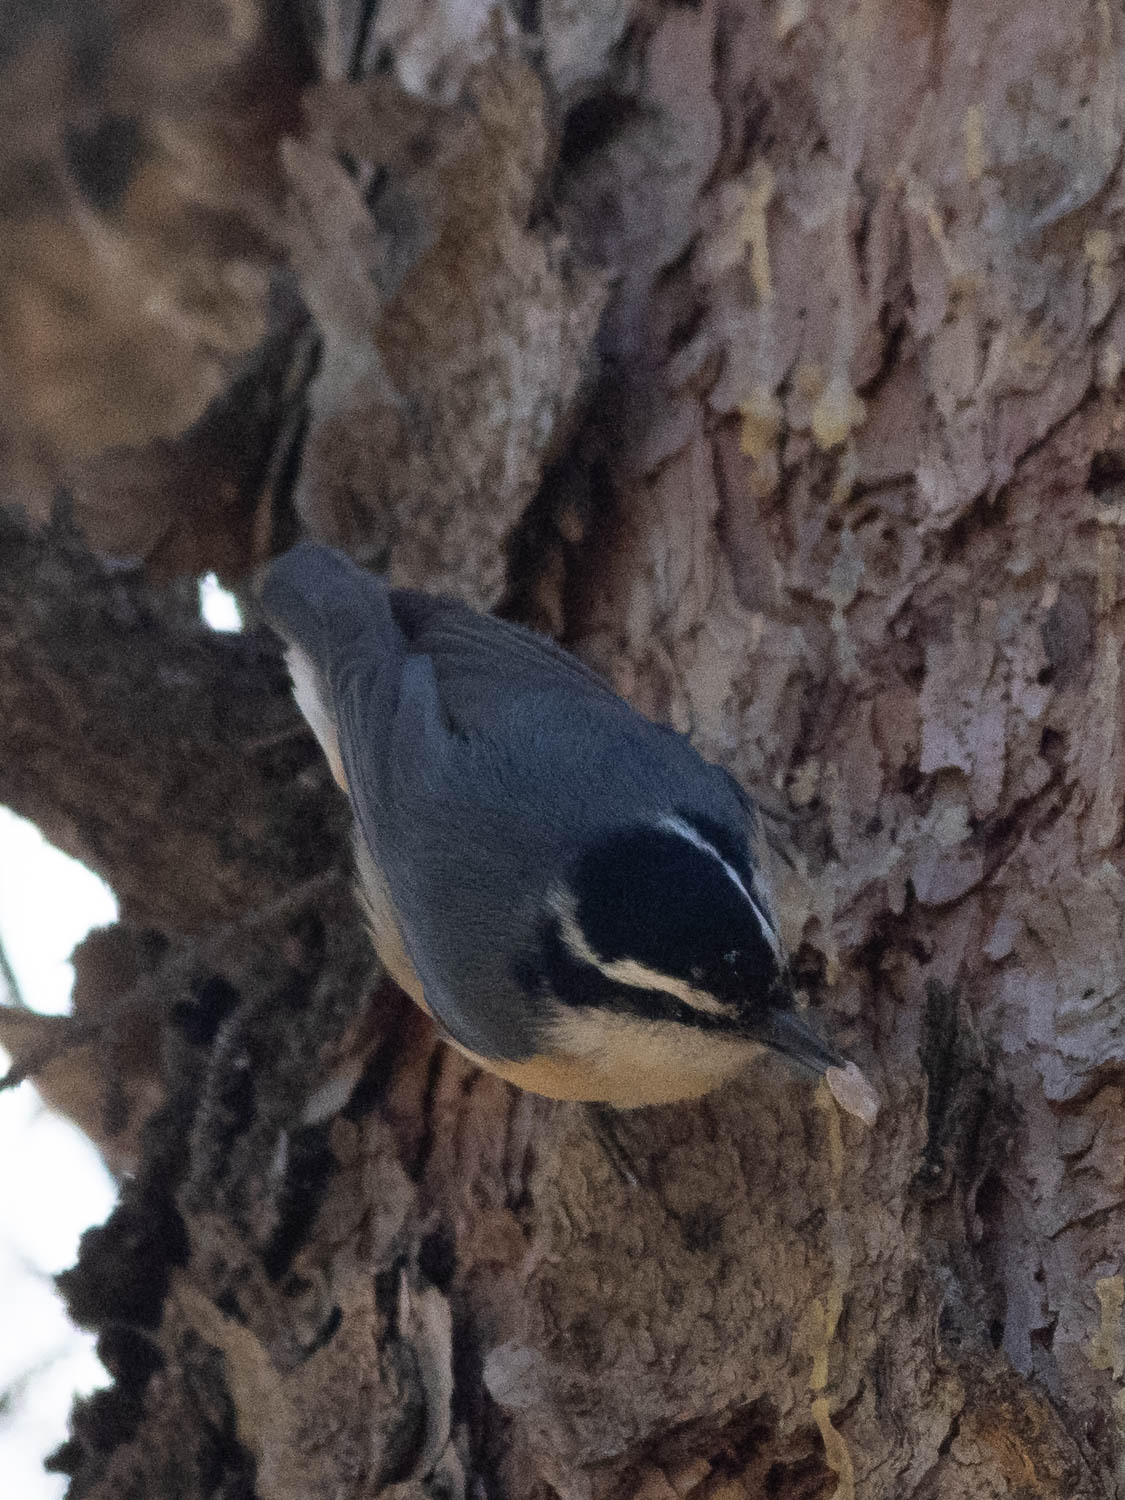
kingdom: Animalia
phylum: Chordata
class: Aves
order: Passeriformes
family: Sittidae
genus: Sitta
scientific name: Sitta canadensis
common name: Red-breasted nuthatch
